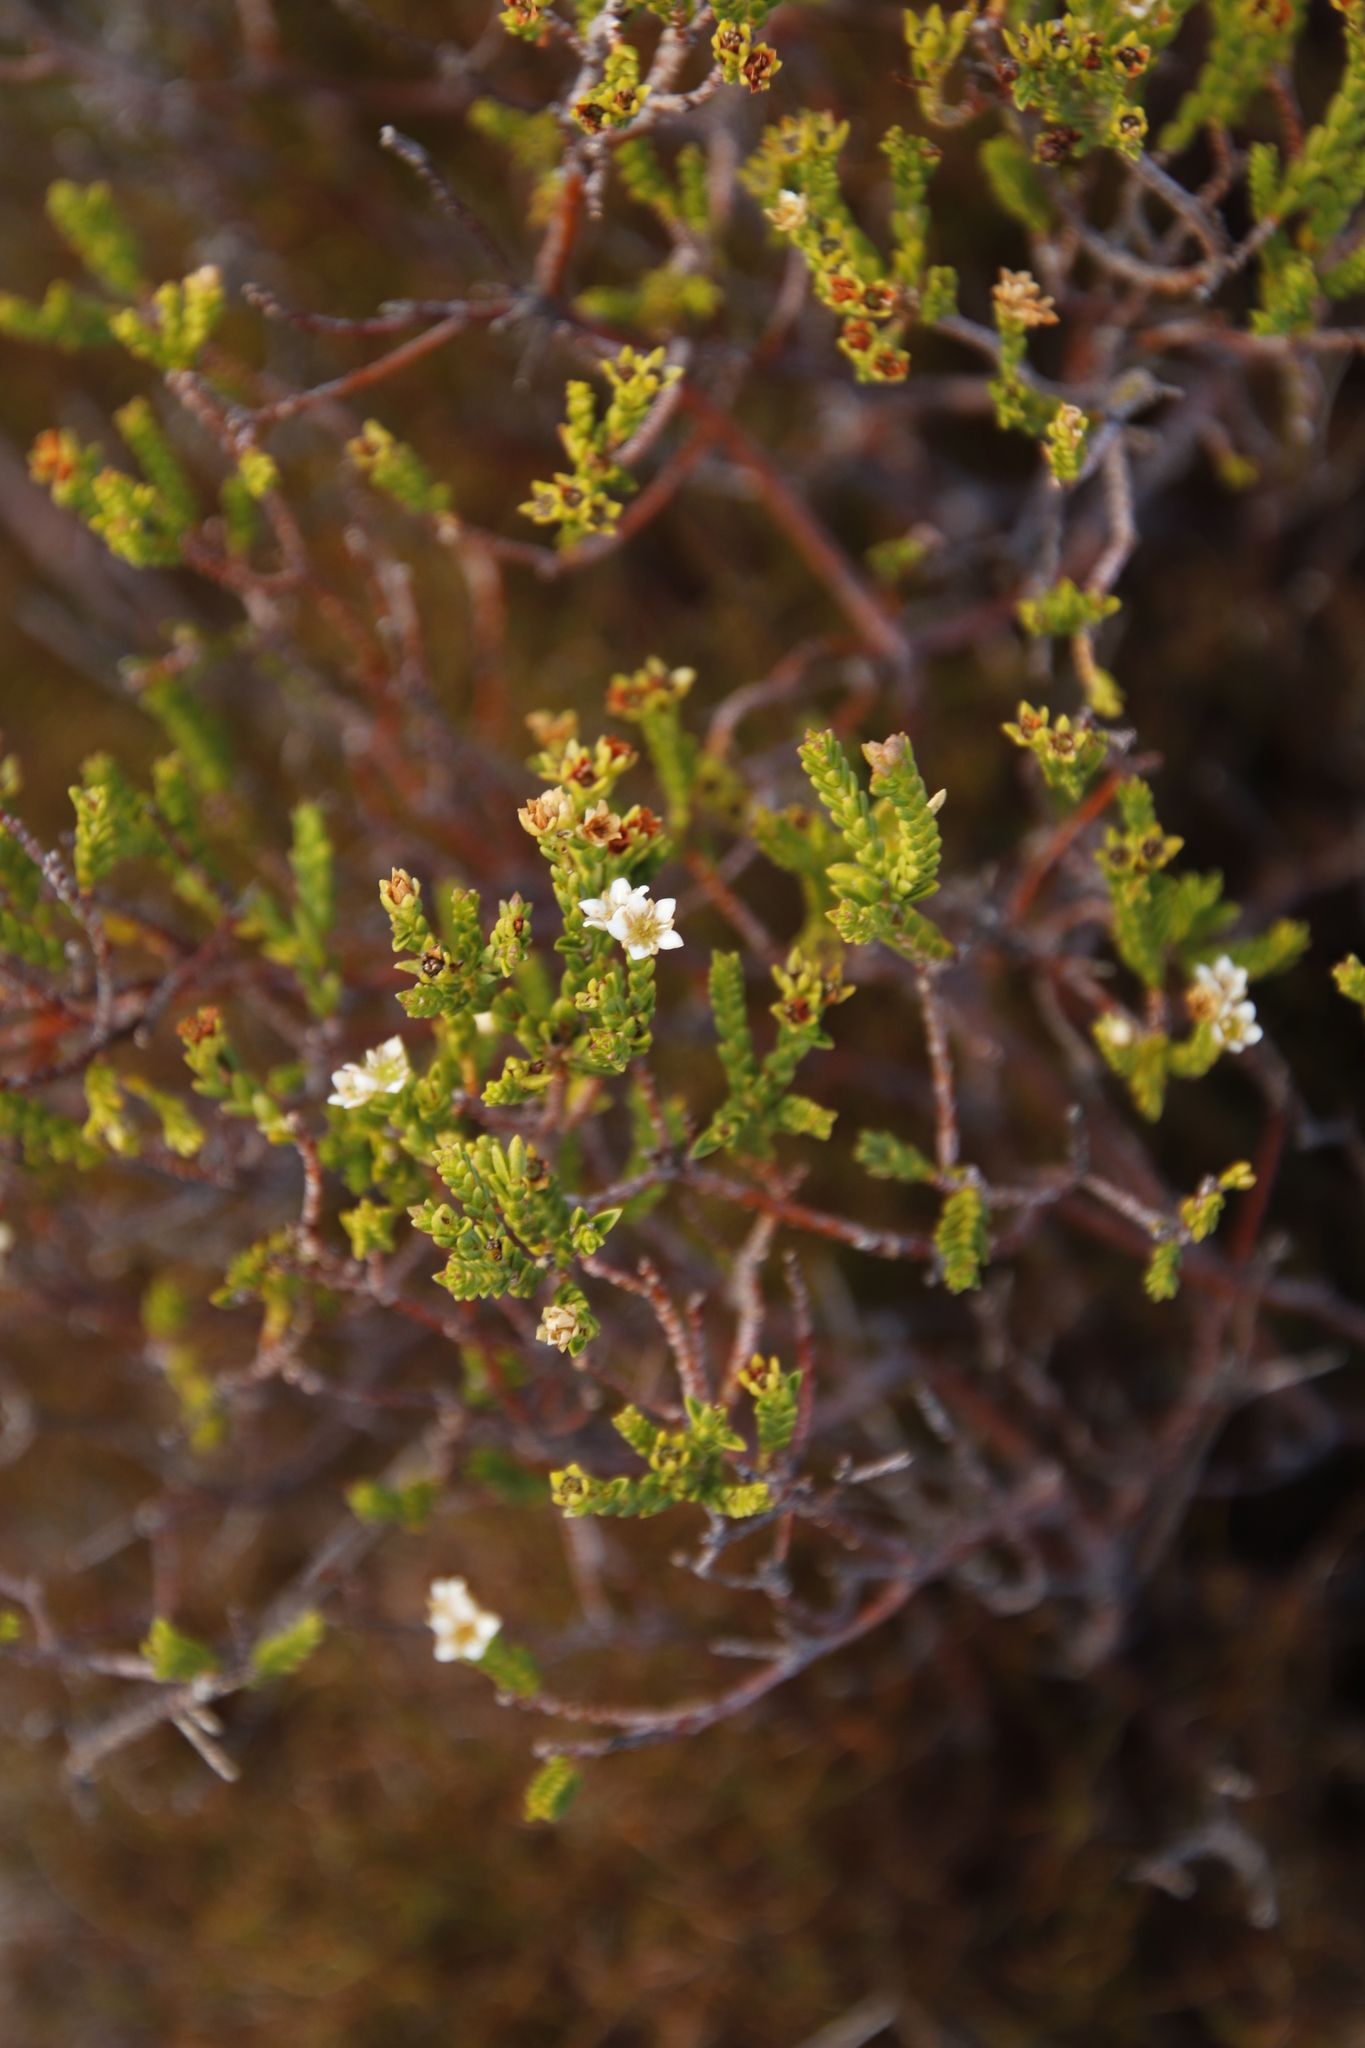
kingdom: Plantae
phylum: Tracheophyta
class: Magnoliopsida
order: Sapindales
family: Rutaceae
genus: Diosma
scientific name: Diosma oppositifolia
